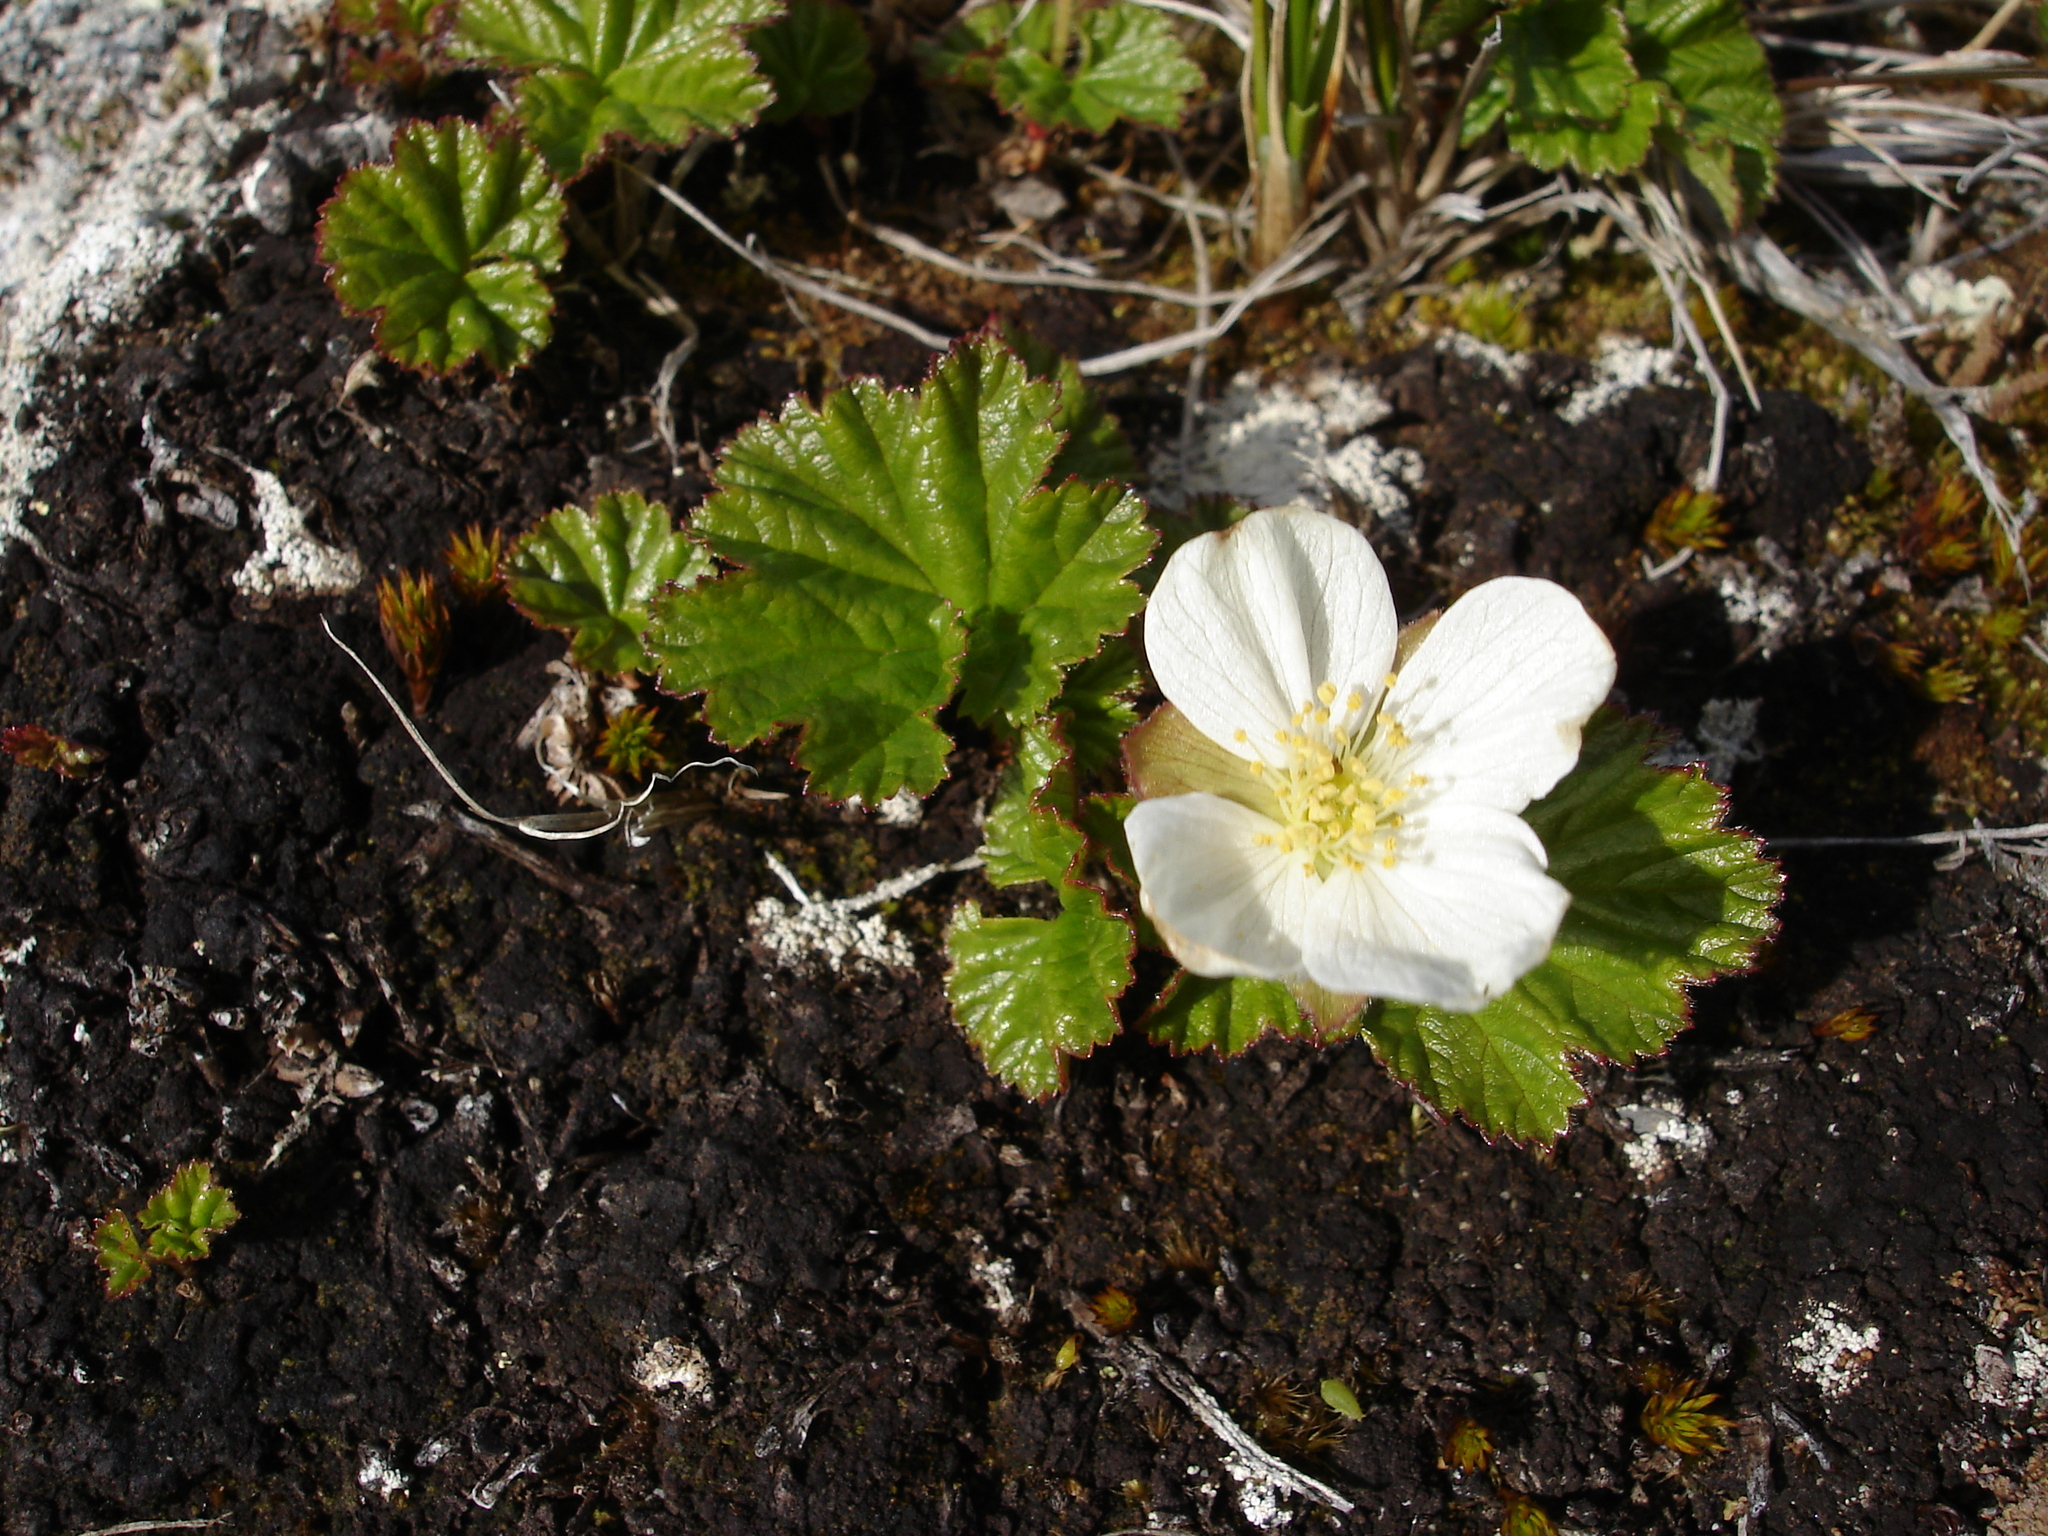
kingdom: Plantae
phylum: Tracheophyta
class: Magnoliopsida
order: Rosales
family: Rosaceae
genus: Rubus
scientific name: Rubus chamaemorus
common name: Cloudberry
